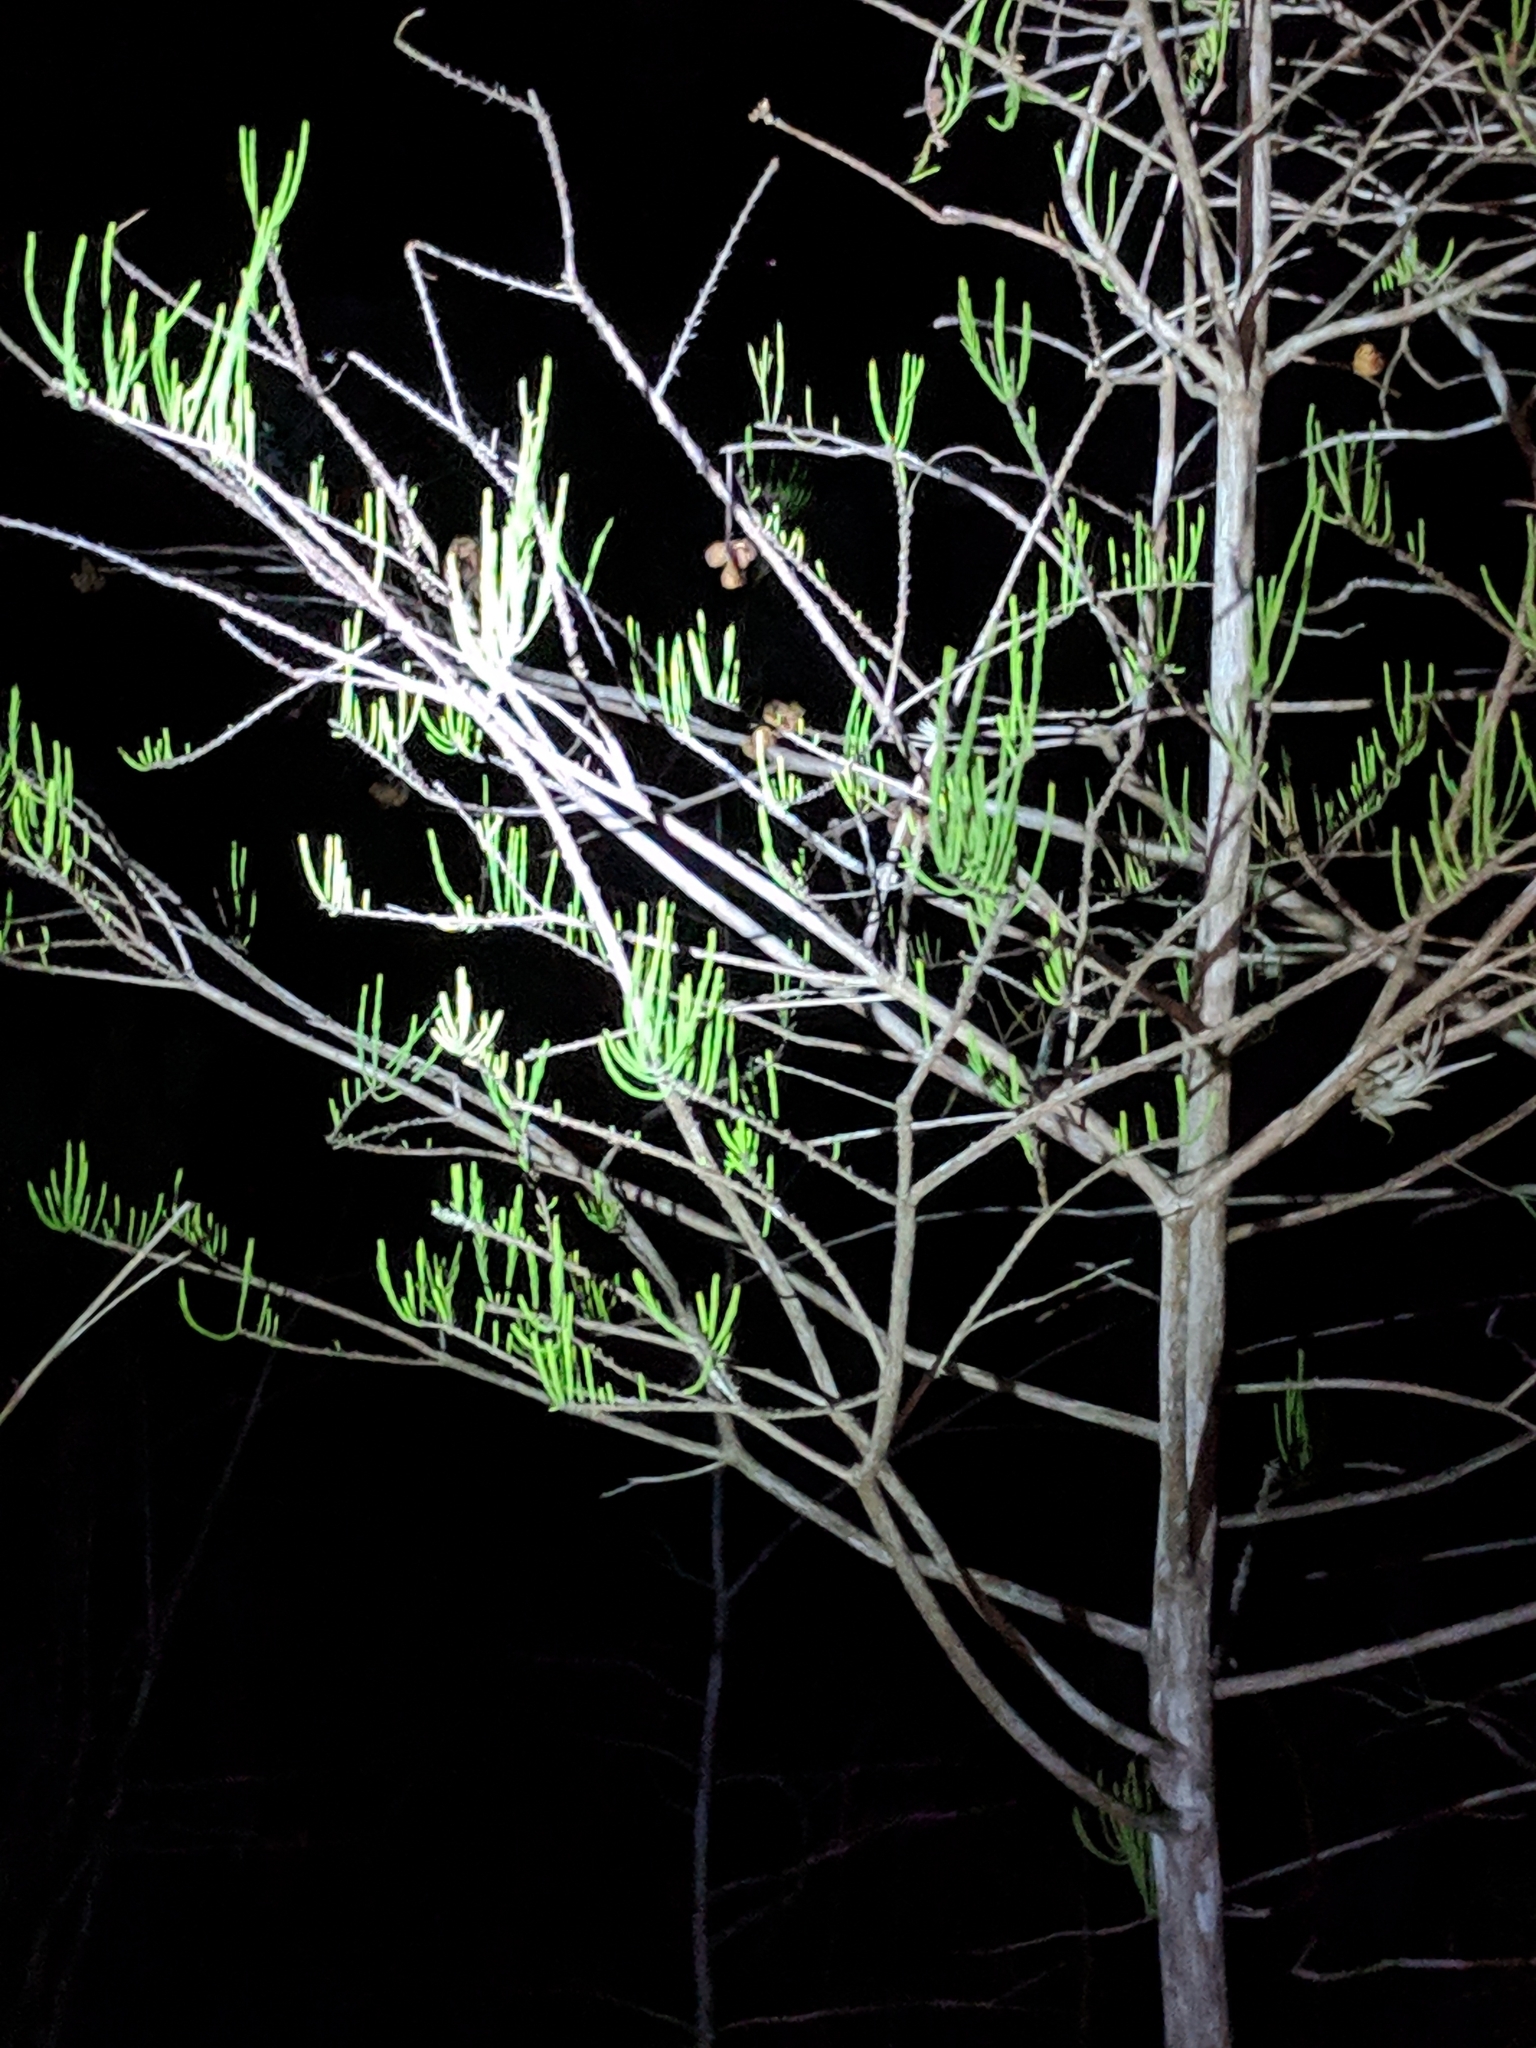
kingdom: Plantae
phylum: Tracheophyta
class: Pinopsida
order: Pinales
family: Cupressaceae
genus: Taxodium
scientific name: Taxodium distichum
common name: Bald cypress
